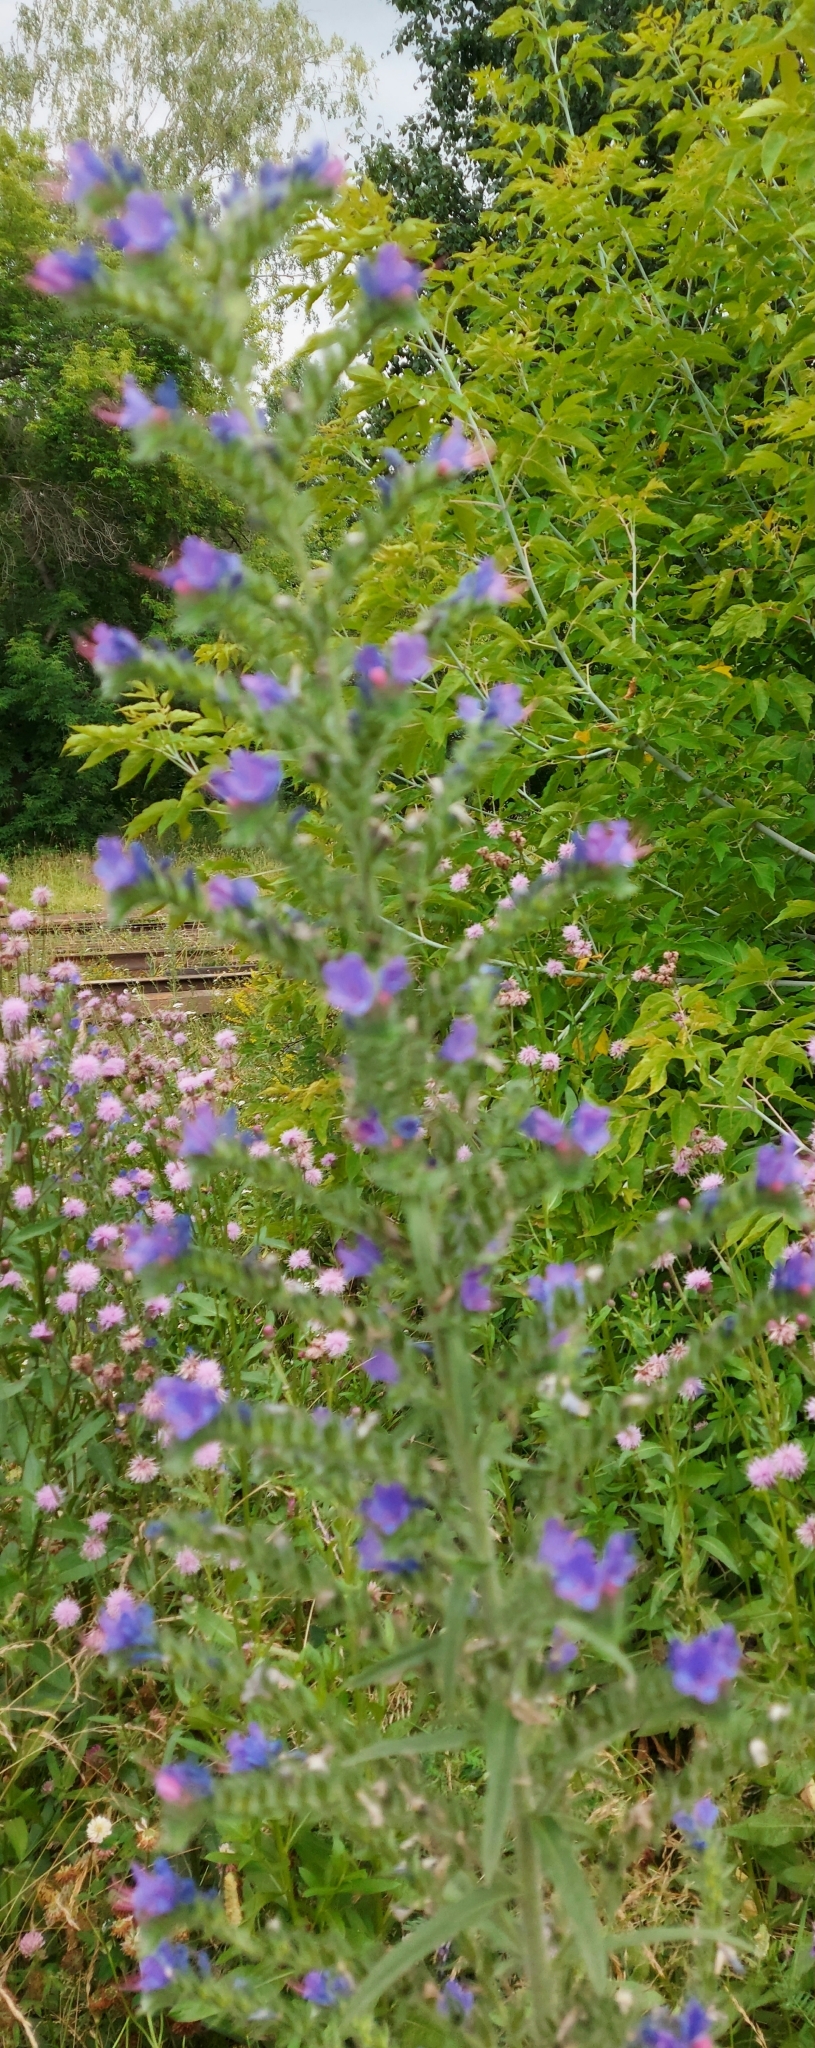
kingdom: Plantae
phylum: Tracheophyta
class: Magnoliopsida
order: Boraginales
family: Boraginaceae
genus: Echium
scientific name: Echium vulgare
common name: Common viper's bugloss
